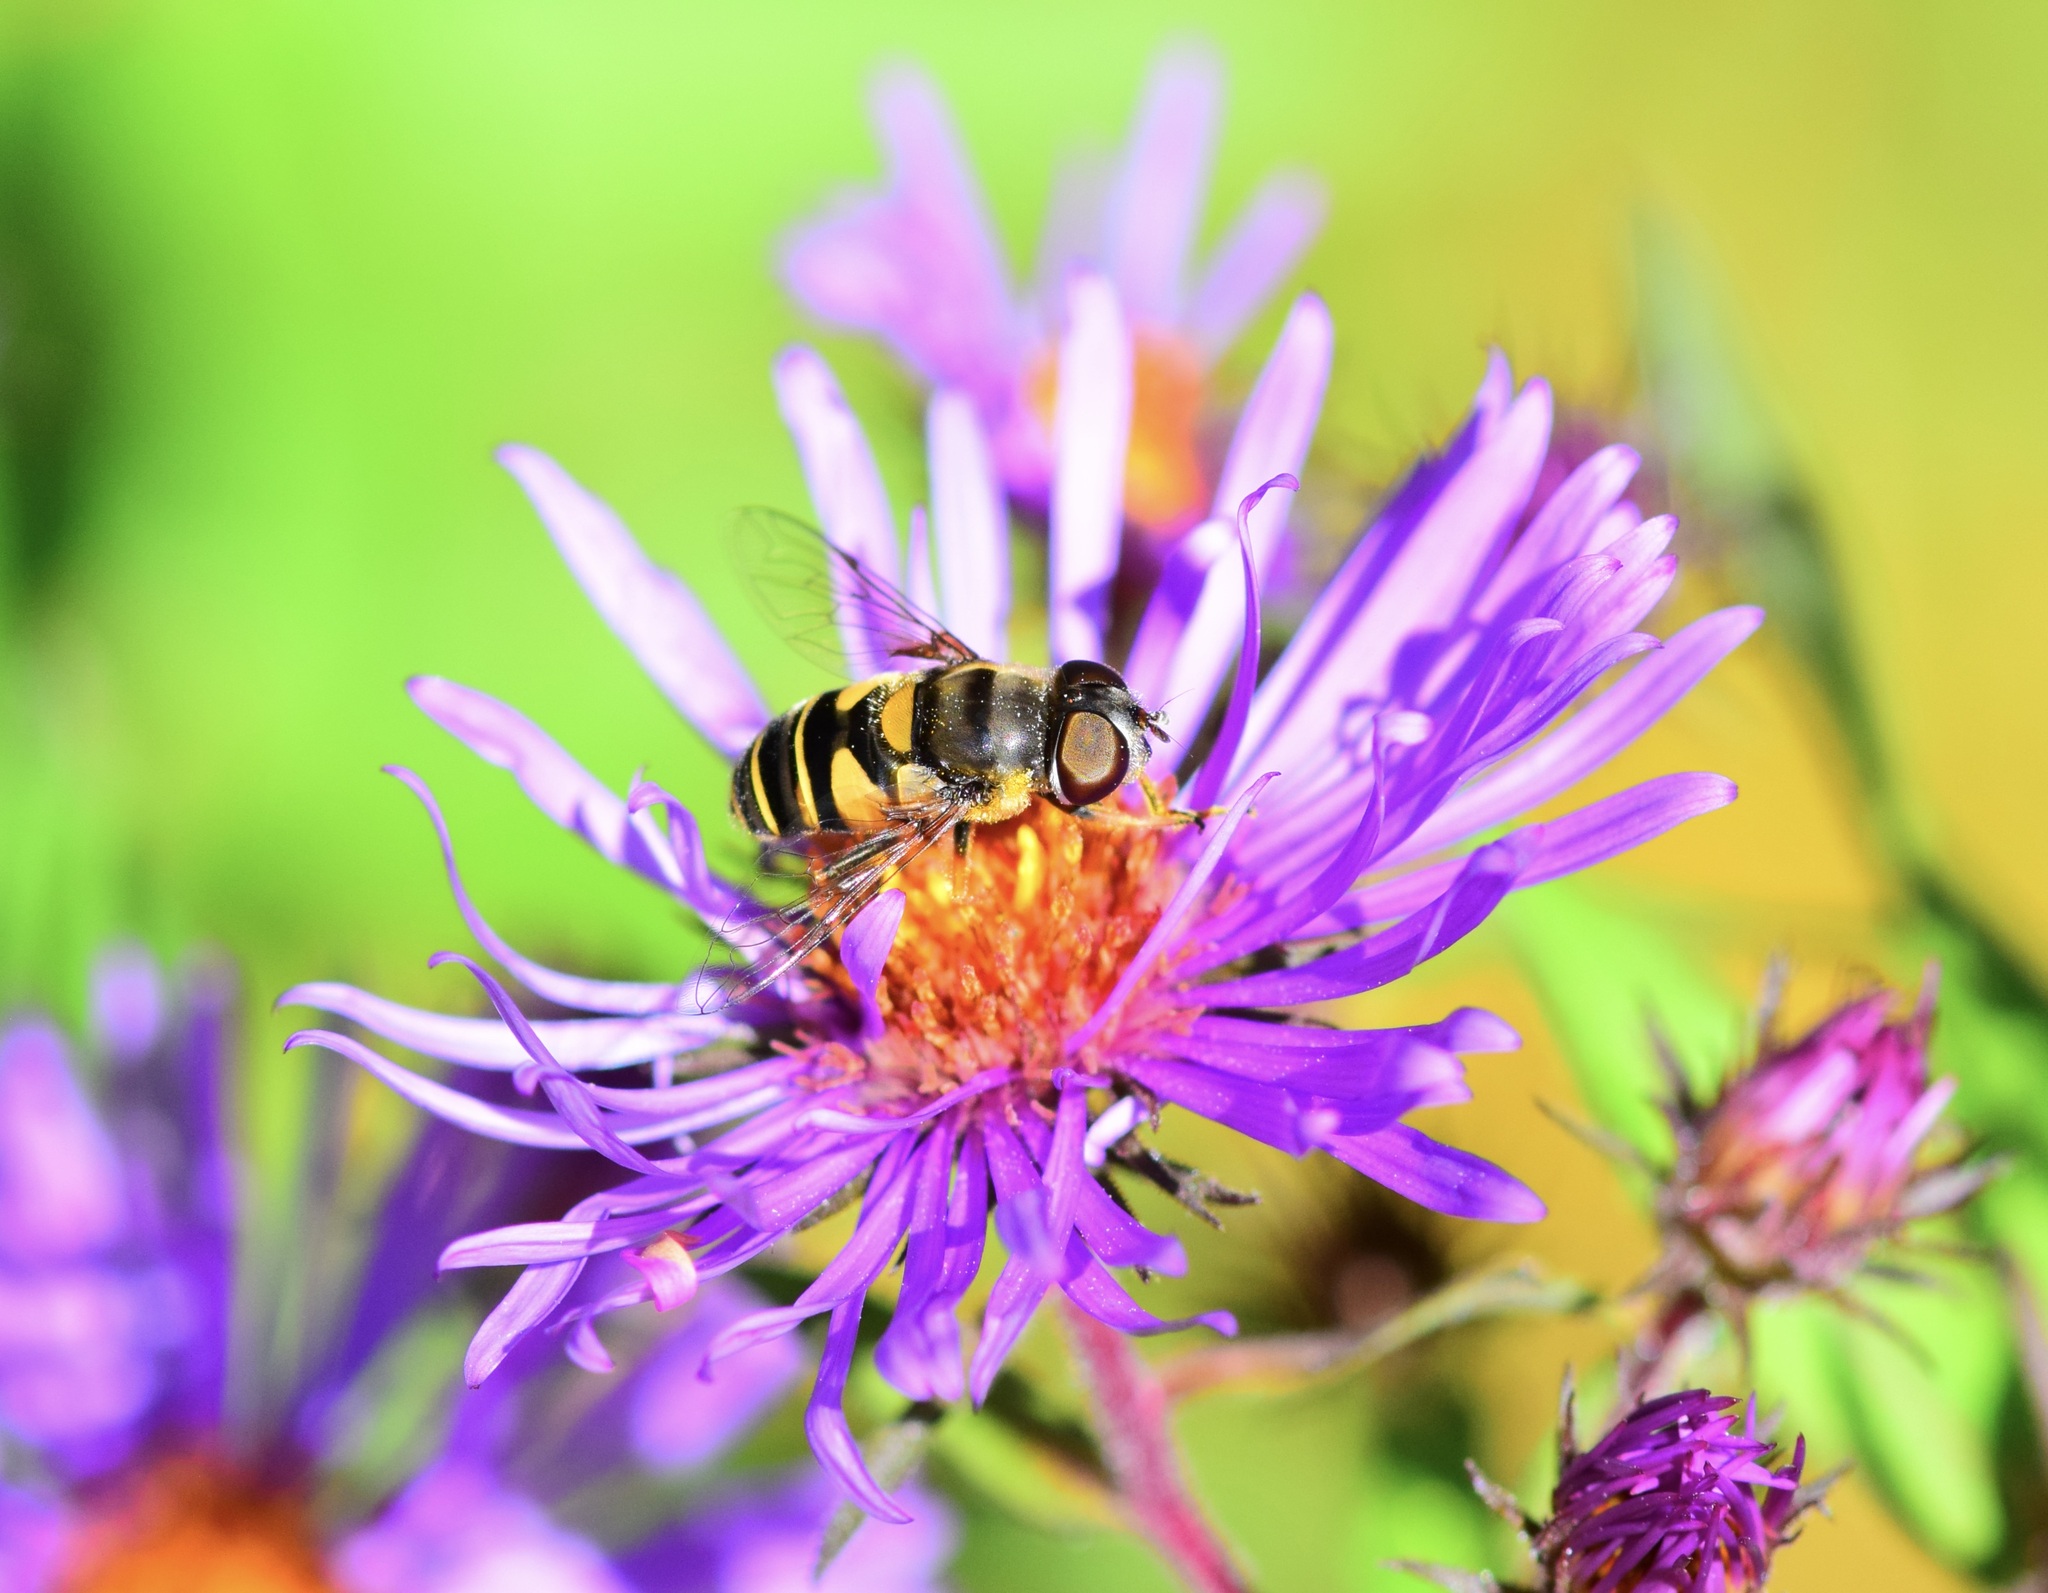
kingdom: Animalia
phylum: Arthropoda
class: Insecta
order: Diptera
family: Syrphidae
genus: Eristalis
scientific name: Eristalis transversa
